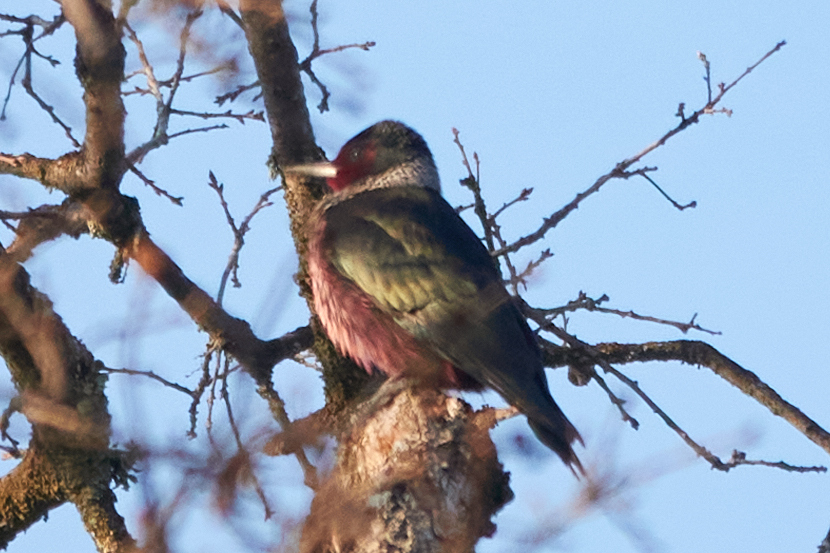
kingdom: Animalia
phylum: Chordata
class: Aves
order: Piciformes
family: Picidae
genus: Melanerpes
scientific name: Melanerpes lewis
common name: Lewis's woodpecker
